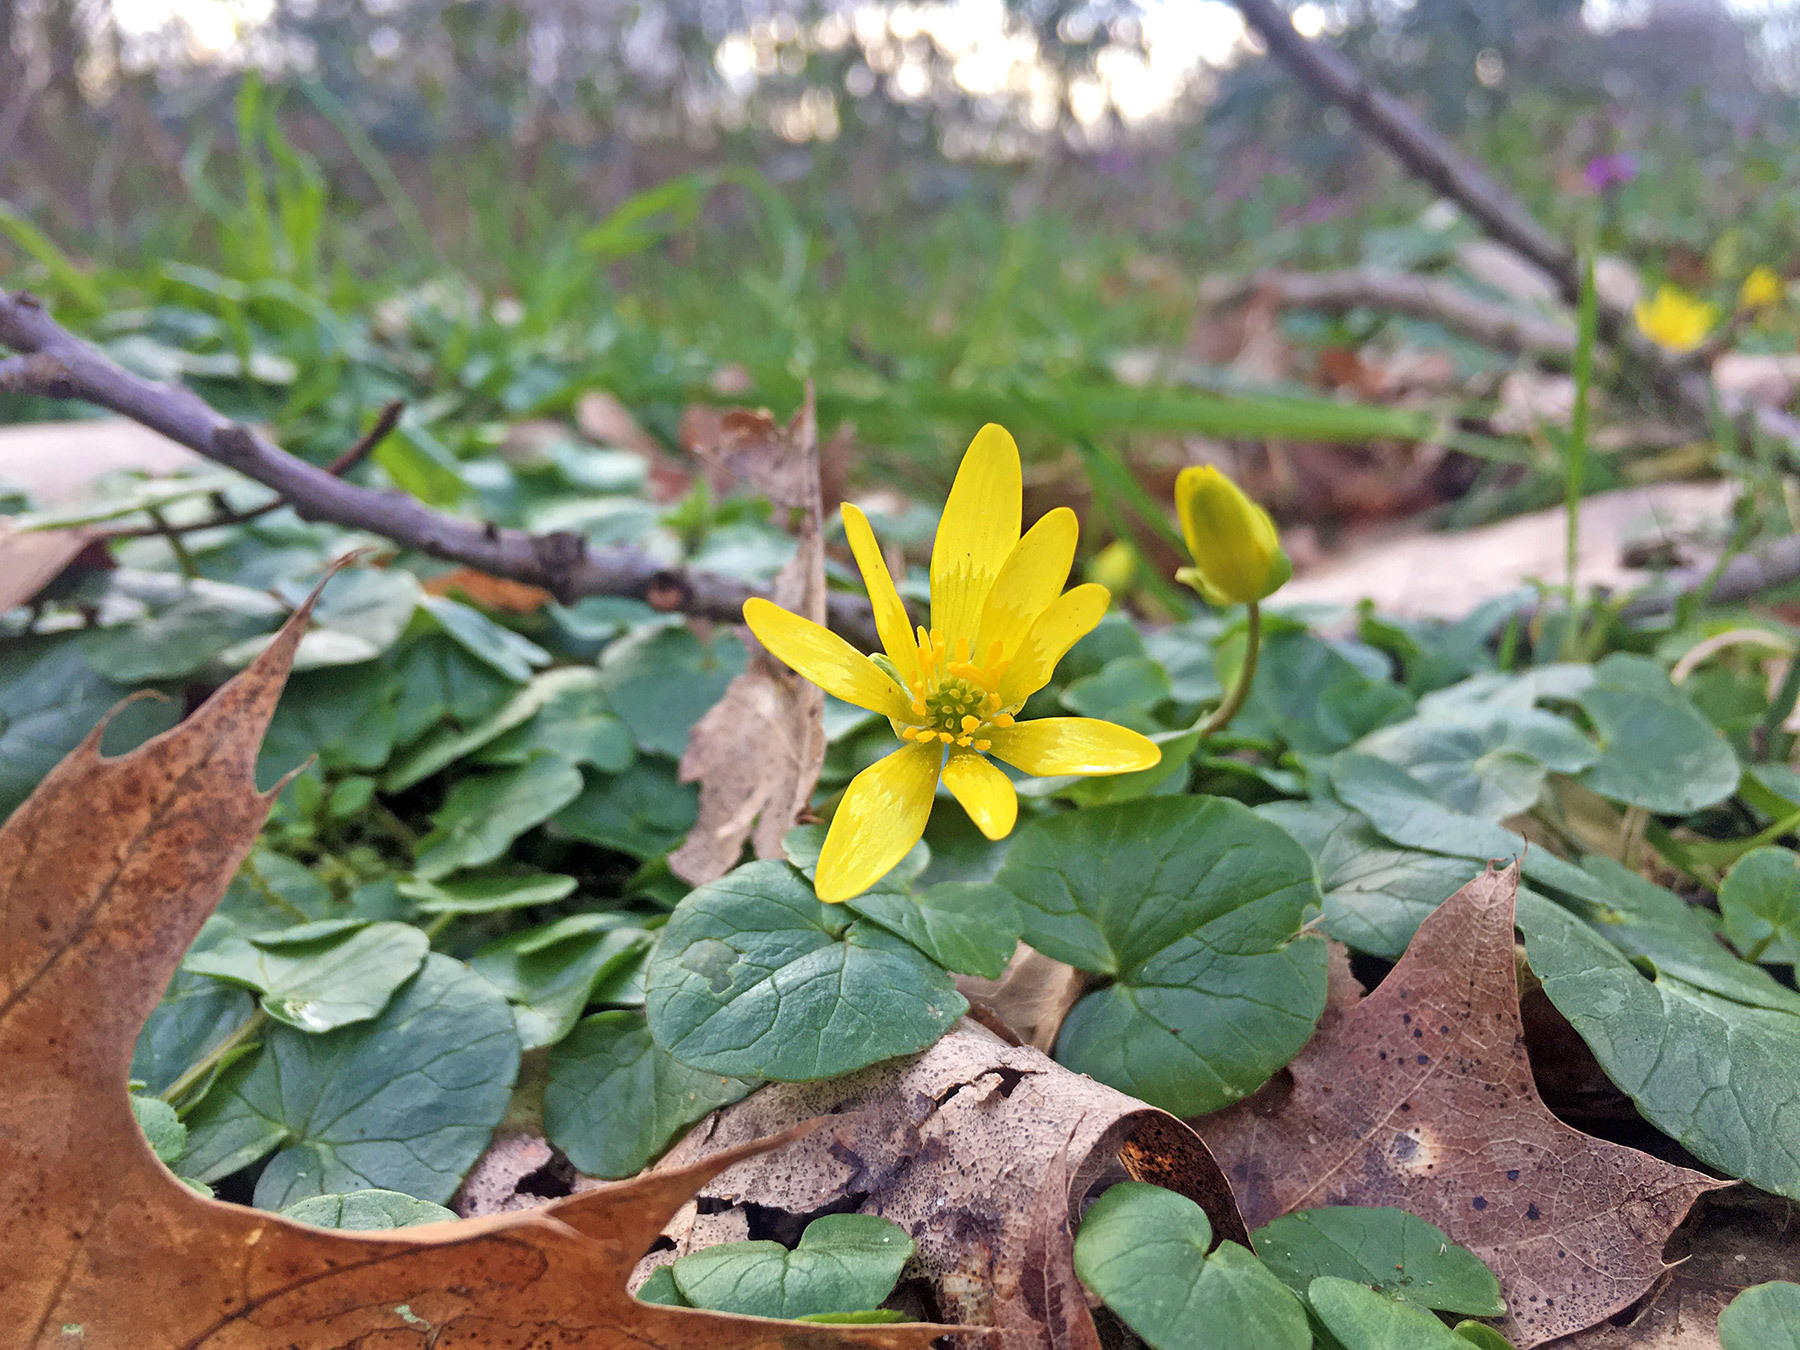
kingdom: Plantae
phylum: Tracheophyta
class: Magnoliopsida
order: Ranunculales
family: Ranunculaceae
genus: Ficaria
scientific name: Ficaria verna
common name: Lesser celandine
